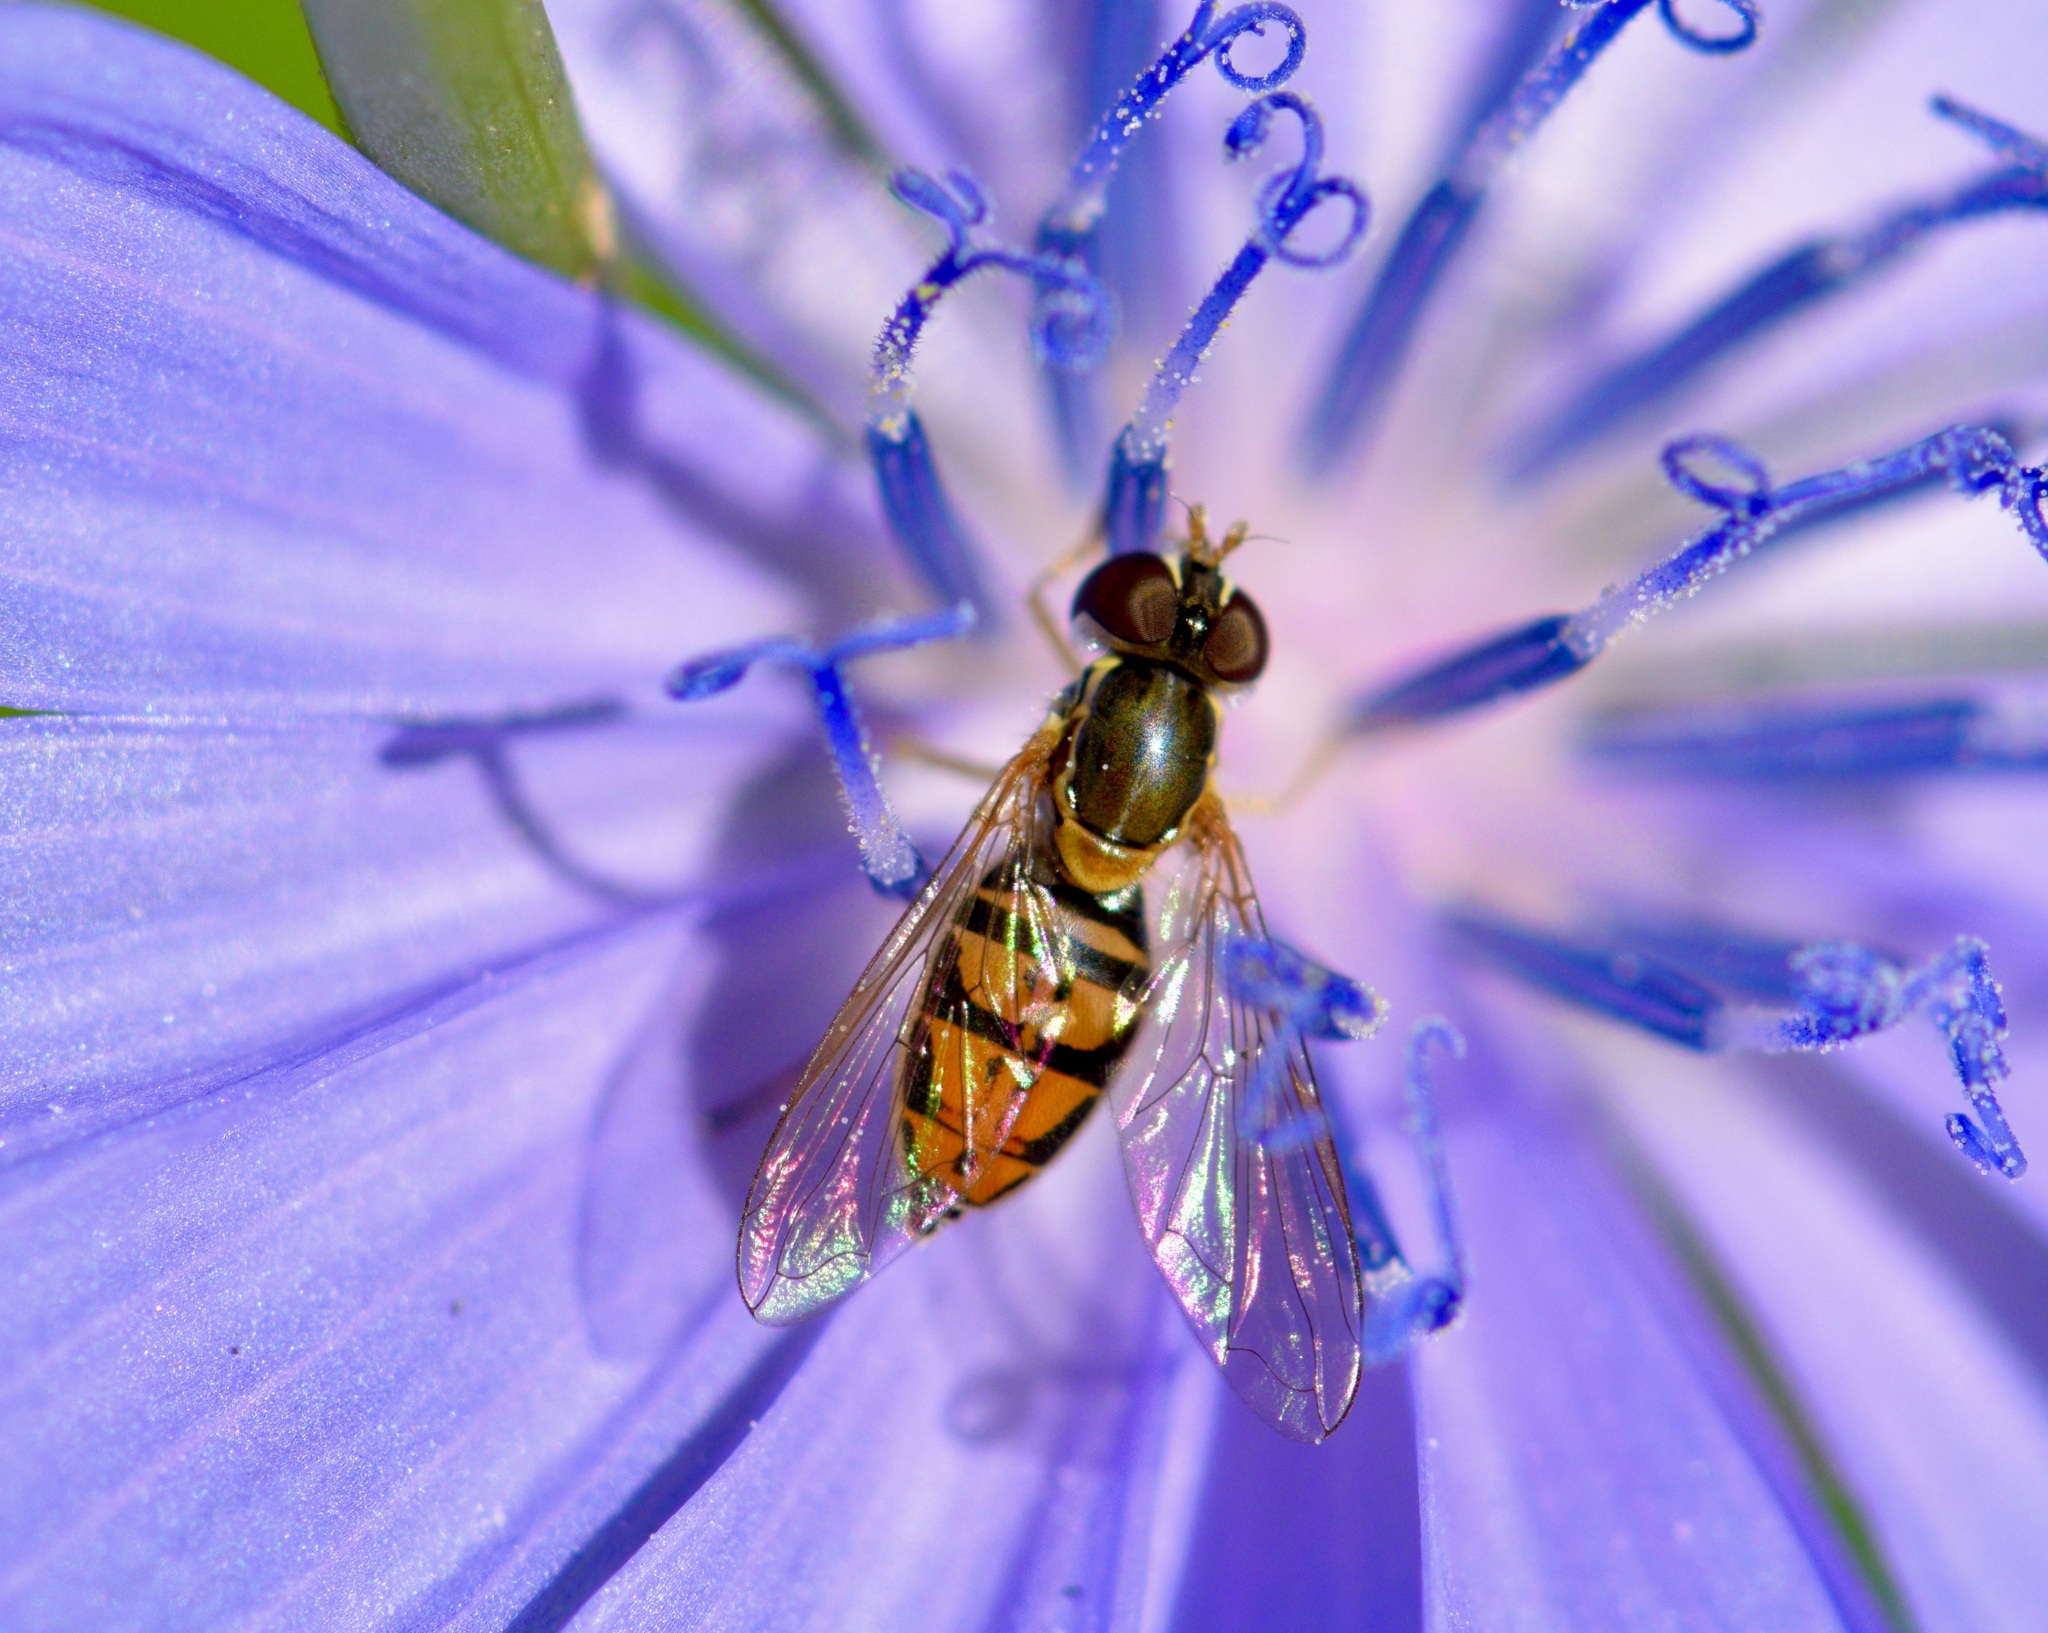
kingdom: Animalia
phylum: Arthropoda
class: Insecta
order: Diptera
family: Syrphidae
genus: Toxomerus
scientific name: Toxomerus marginatus
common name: Syrphid fly
